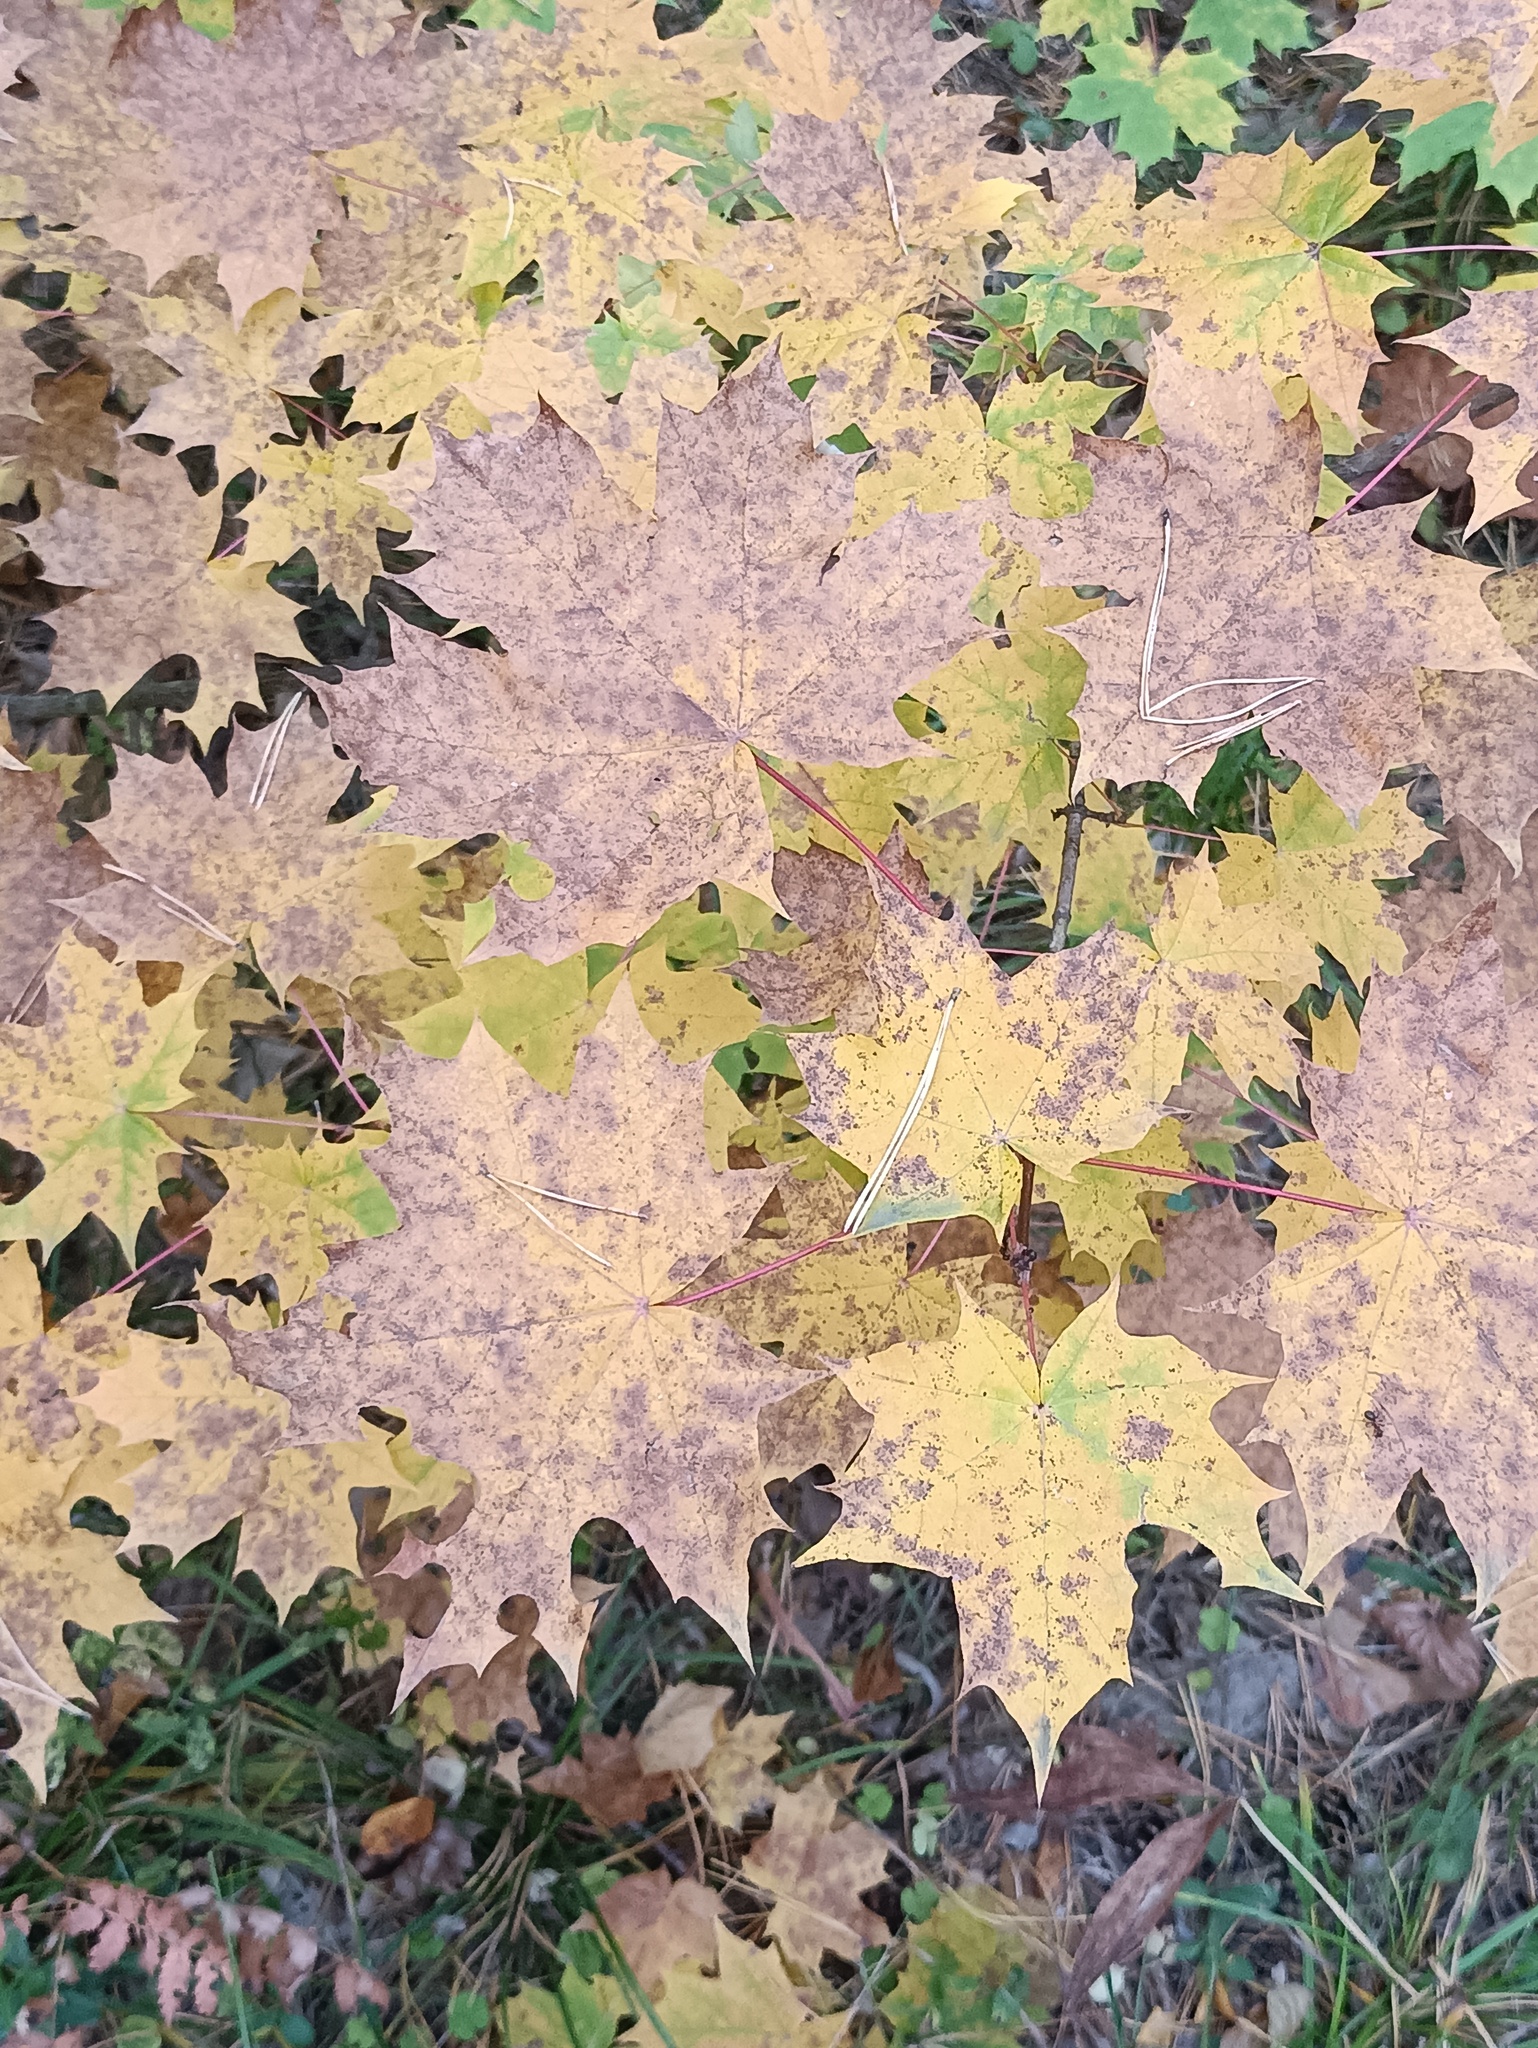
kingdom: Plantae
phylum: Tracheophyta
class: Magnoliopsida
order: Sapindales
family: Sapindaceae
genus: Acer
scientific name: Acer platanoides
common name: Norway maple
